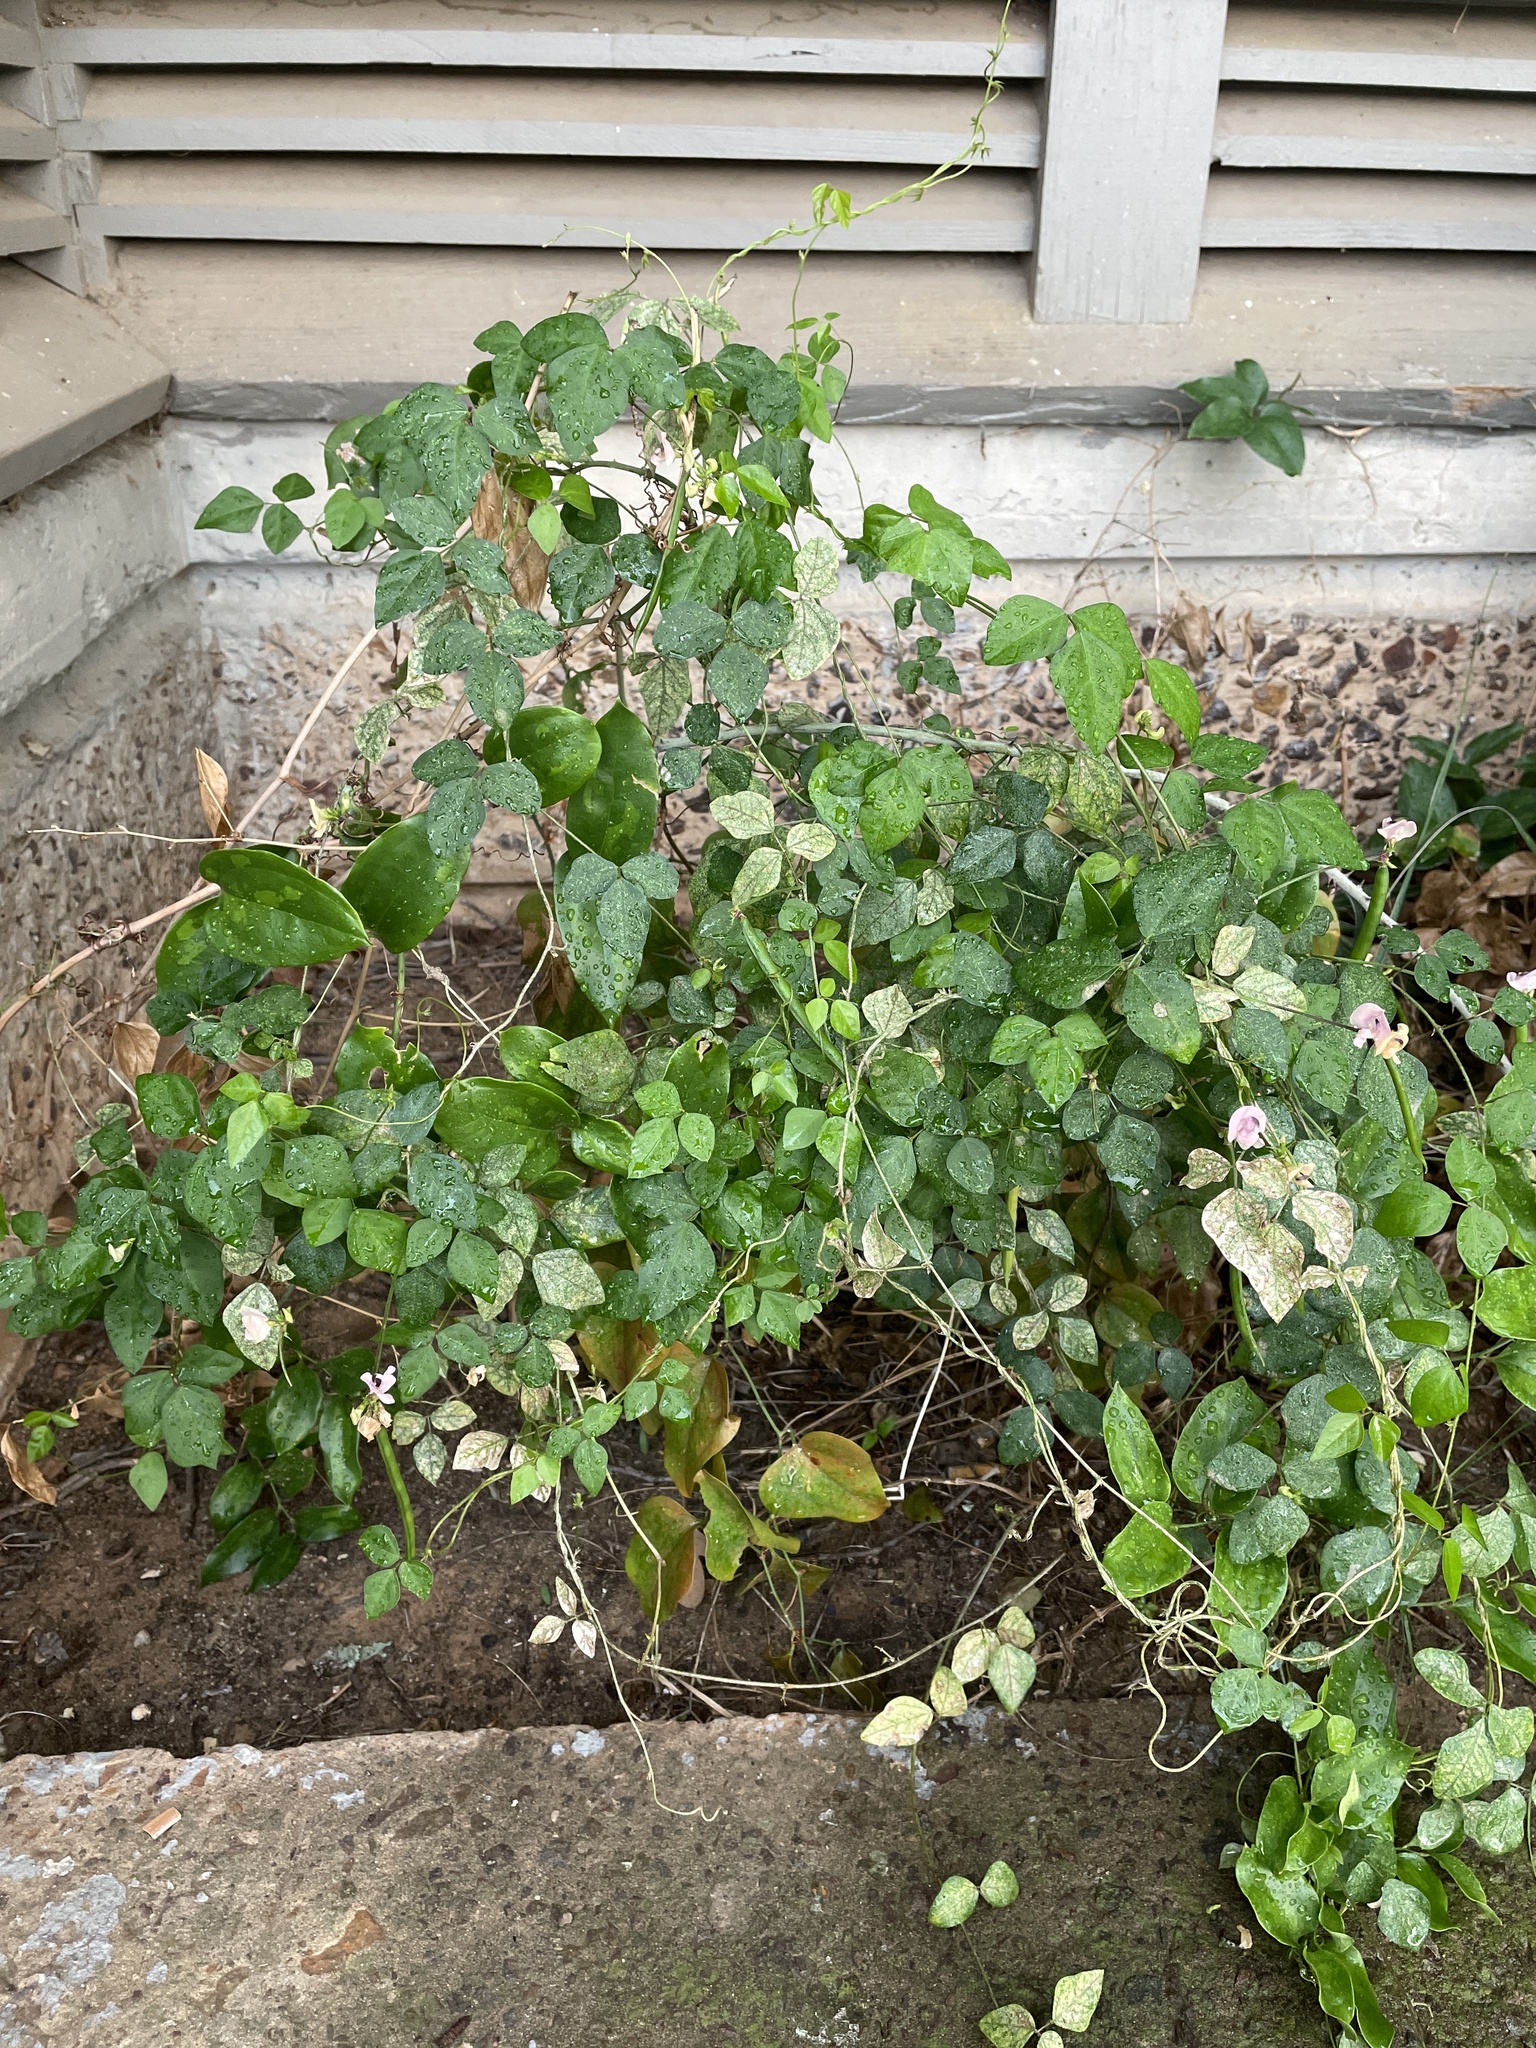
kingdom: Plantae
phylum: Tracheophyta
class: Magnoliopsida
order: Fabales
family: Fabaceae
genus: Strophostyles
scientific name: Strophostyles helvola
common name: Trailing wild bean
